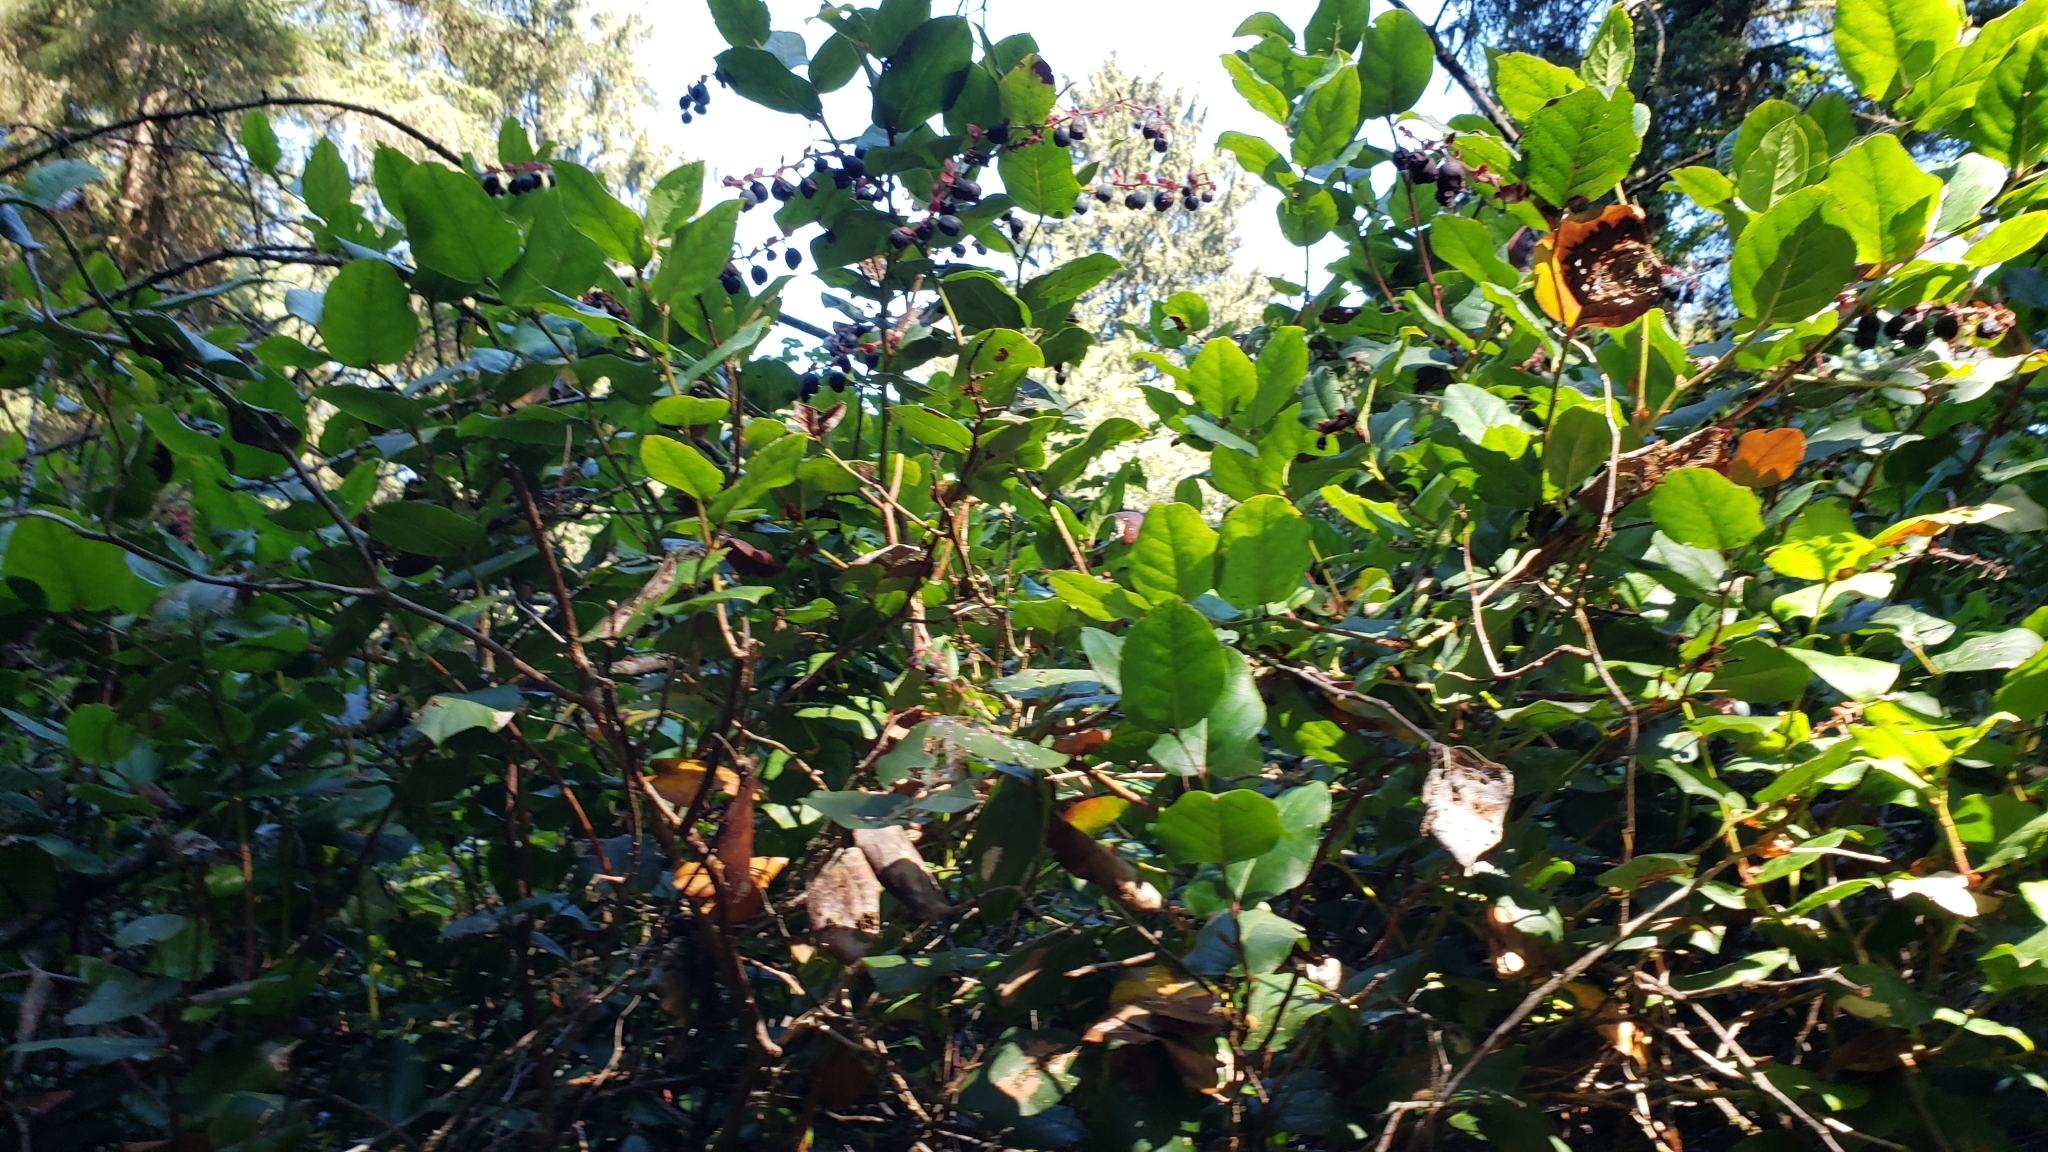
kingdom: Plantae
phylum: Tracheophyta
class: Magnoliopsida
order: Ericales
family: Ericaceae
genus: Gaultheria
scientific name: Gaultheria shallon
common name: Shallon
